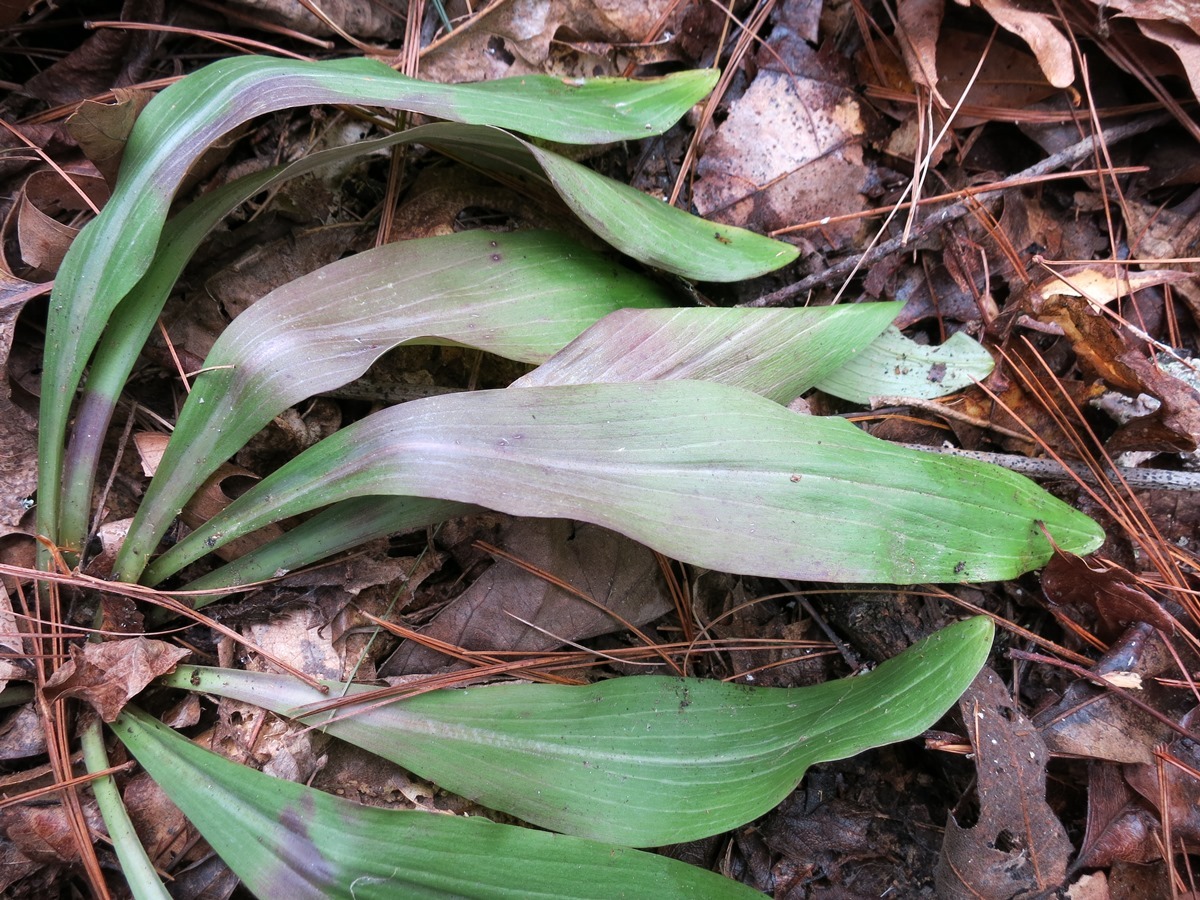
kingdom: Plantae
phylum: Tracheophyta
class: Liliopsida
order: Liliales
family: Melanthiaceae
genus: Chamaelirium
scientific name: Chamaelirium luteum
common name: Fairy-wand
